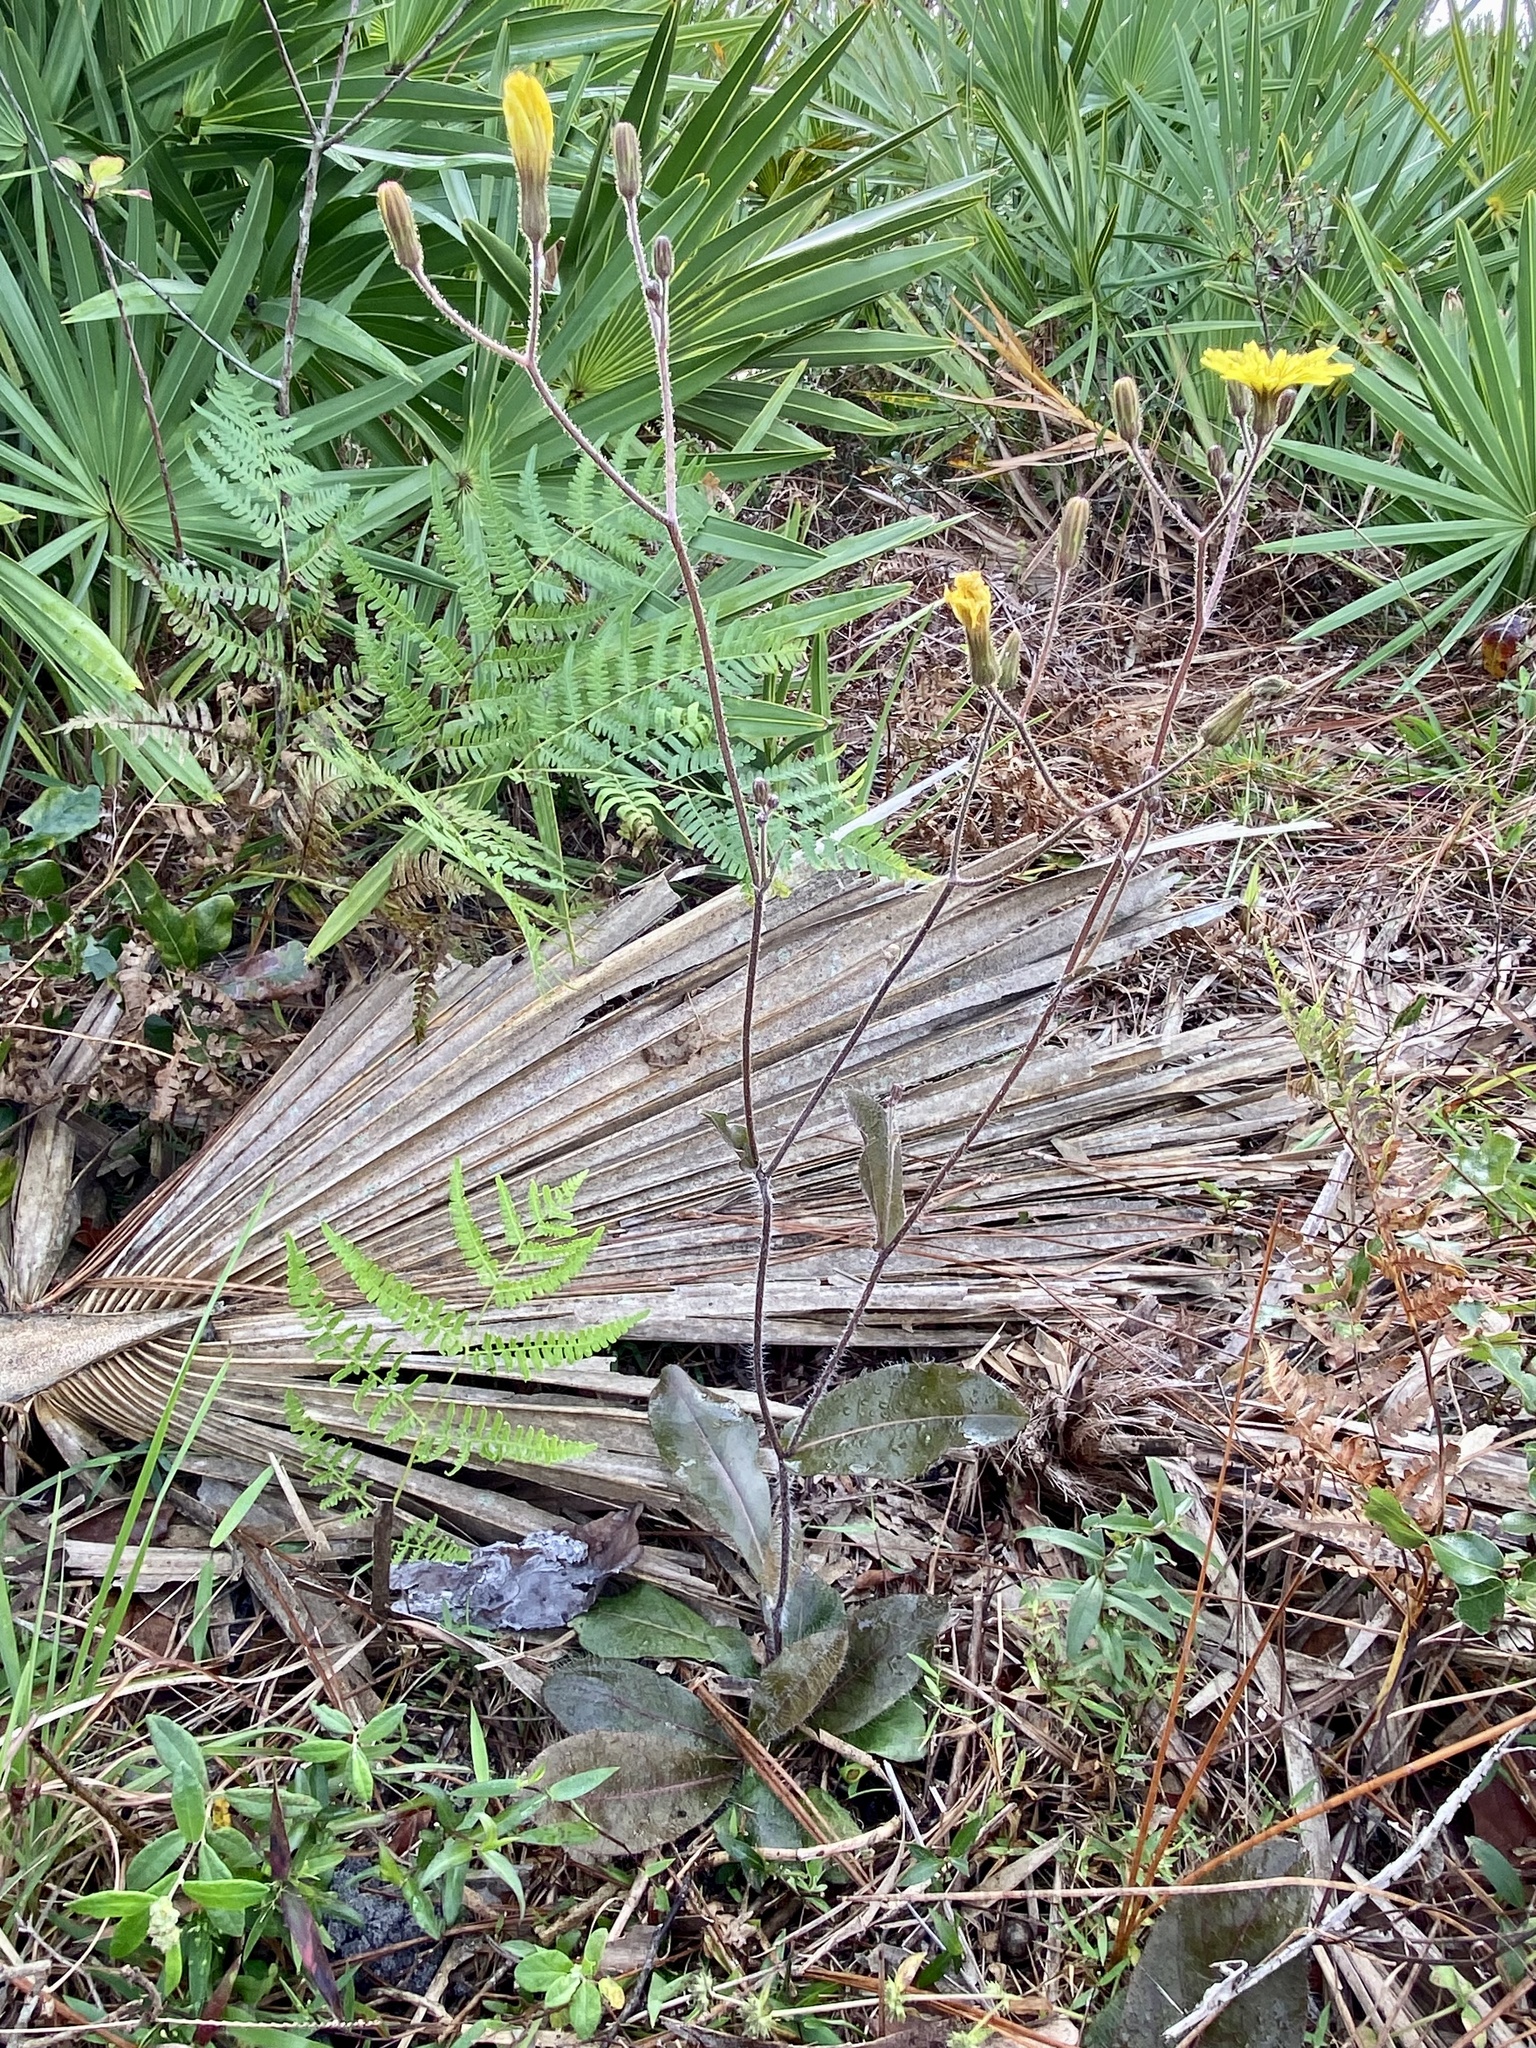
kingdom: Plantae
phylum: Tracheophyta
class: Magnoliopsida
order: Asterales
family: Asteraceae
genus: Hieracium
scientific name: Hieracium megacephalum
